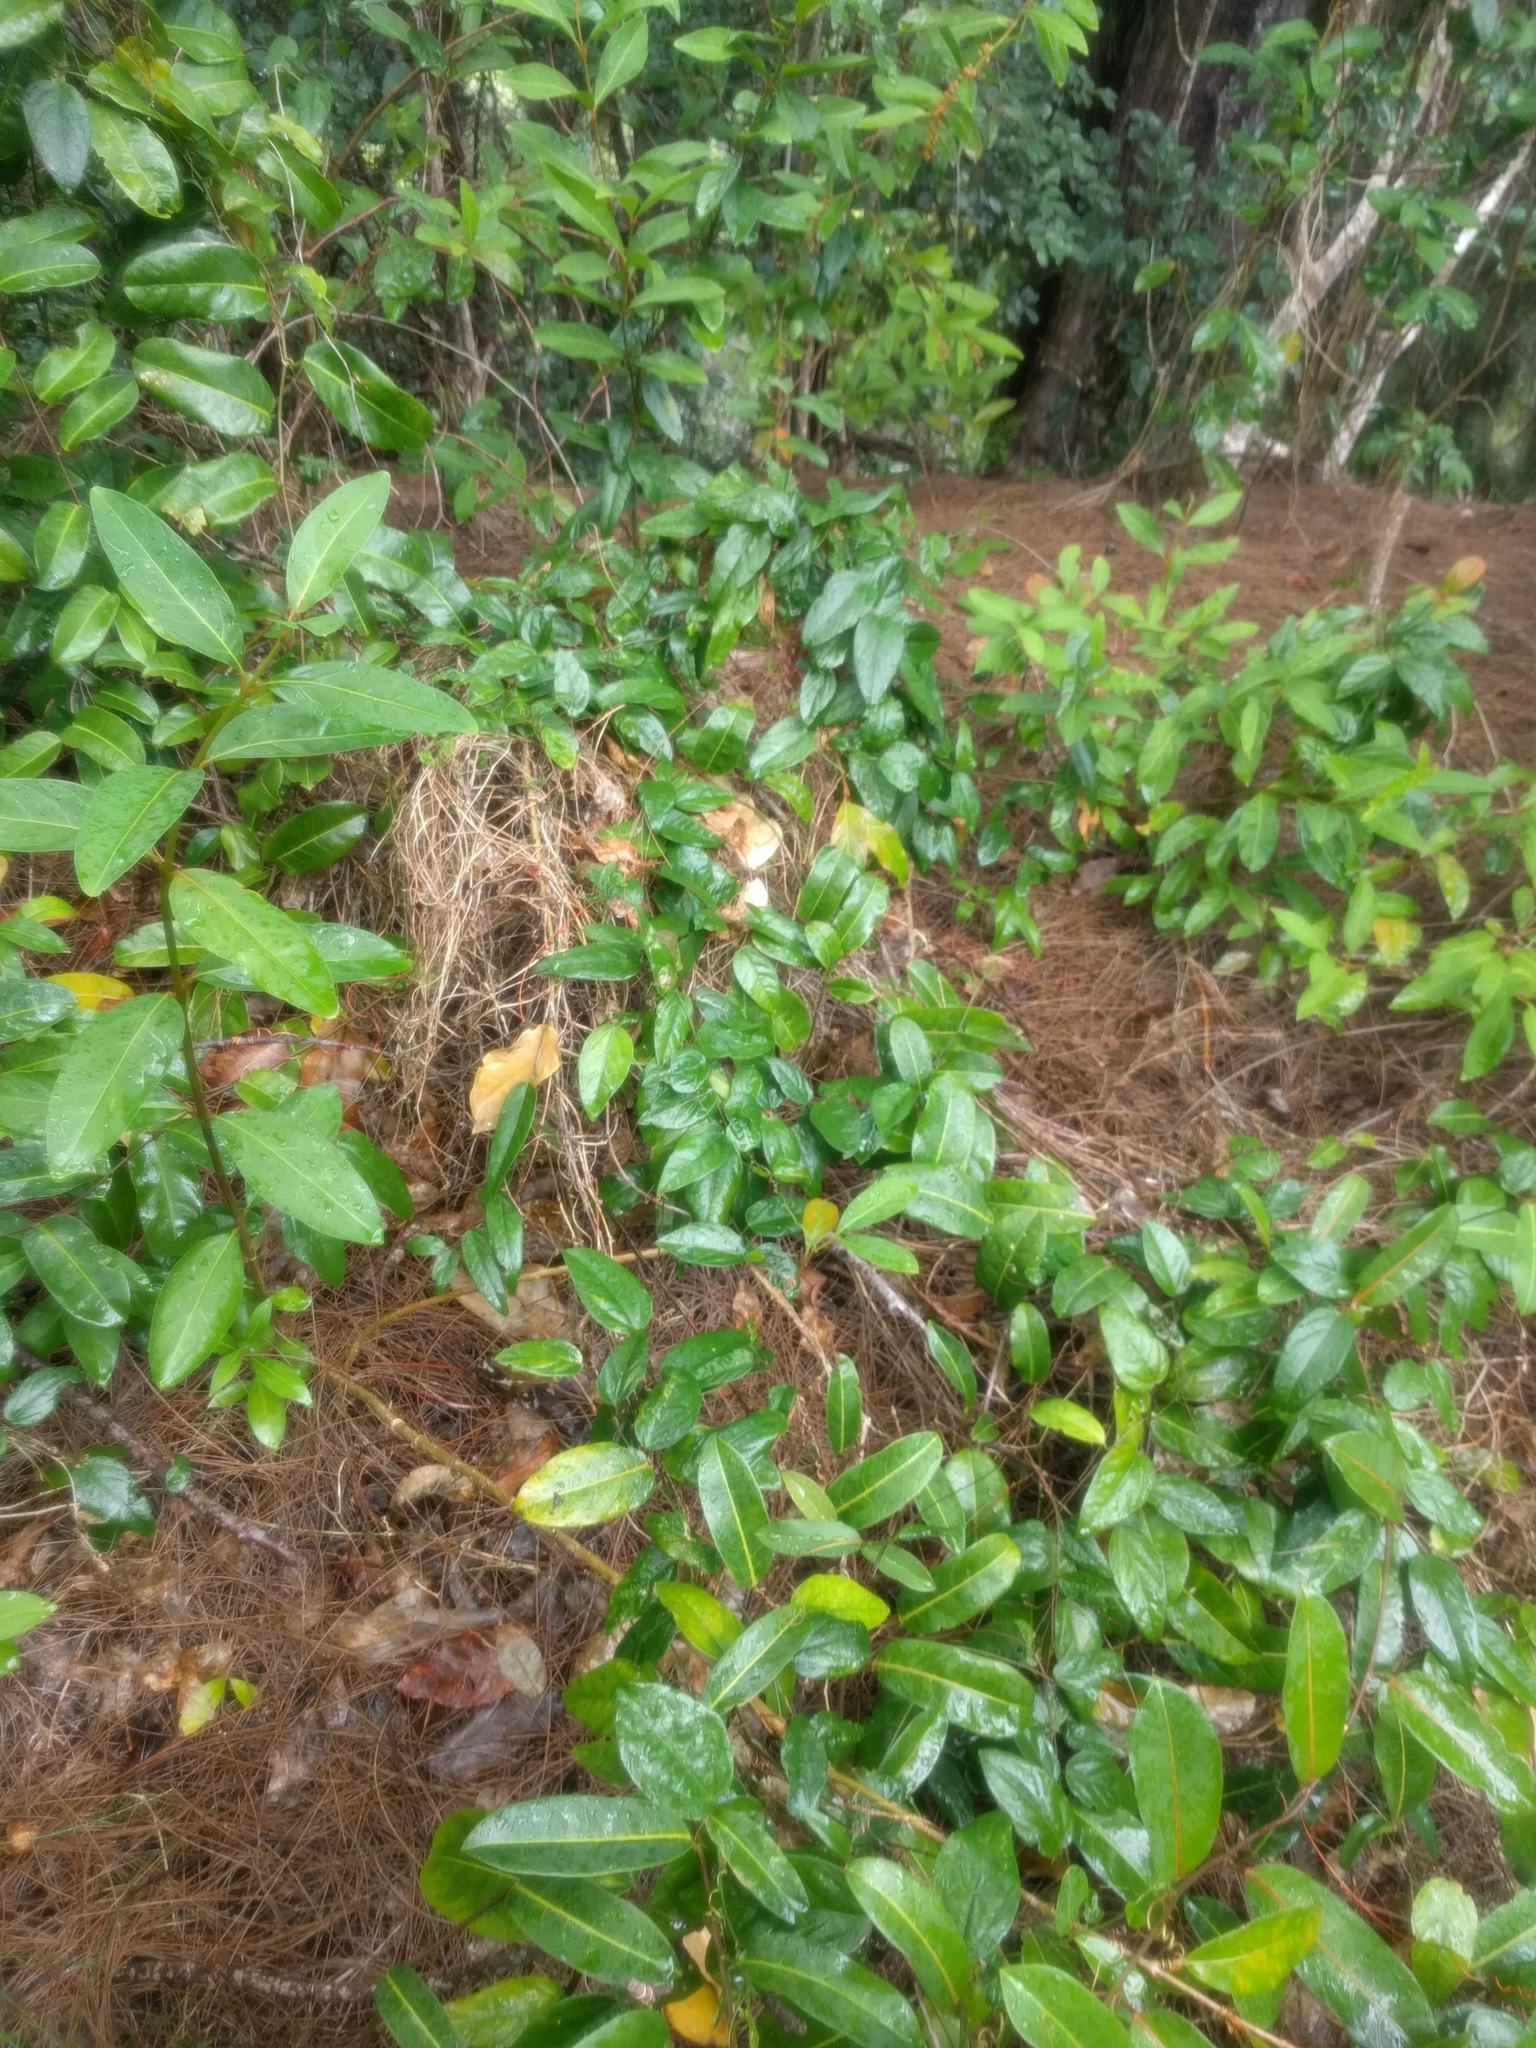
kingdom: Plantae
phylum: Tracheophyta
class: Magnoliopsida
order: Malpighiales
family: Passifloraceae
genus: Passiflora
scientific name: Passiflora laurifolia
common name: Bell apple
